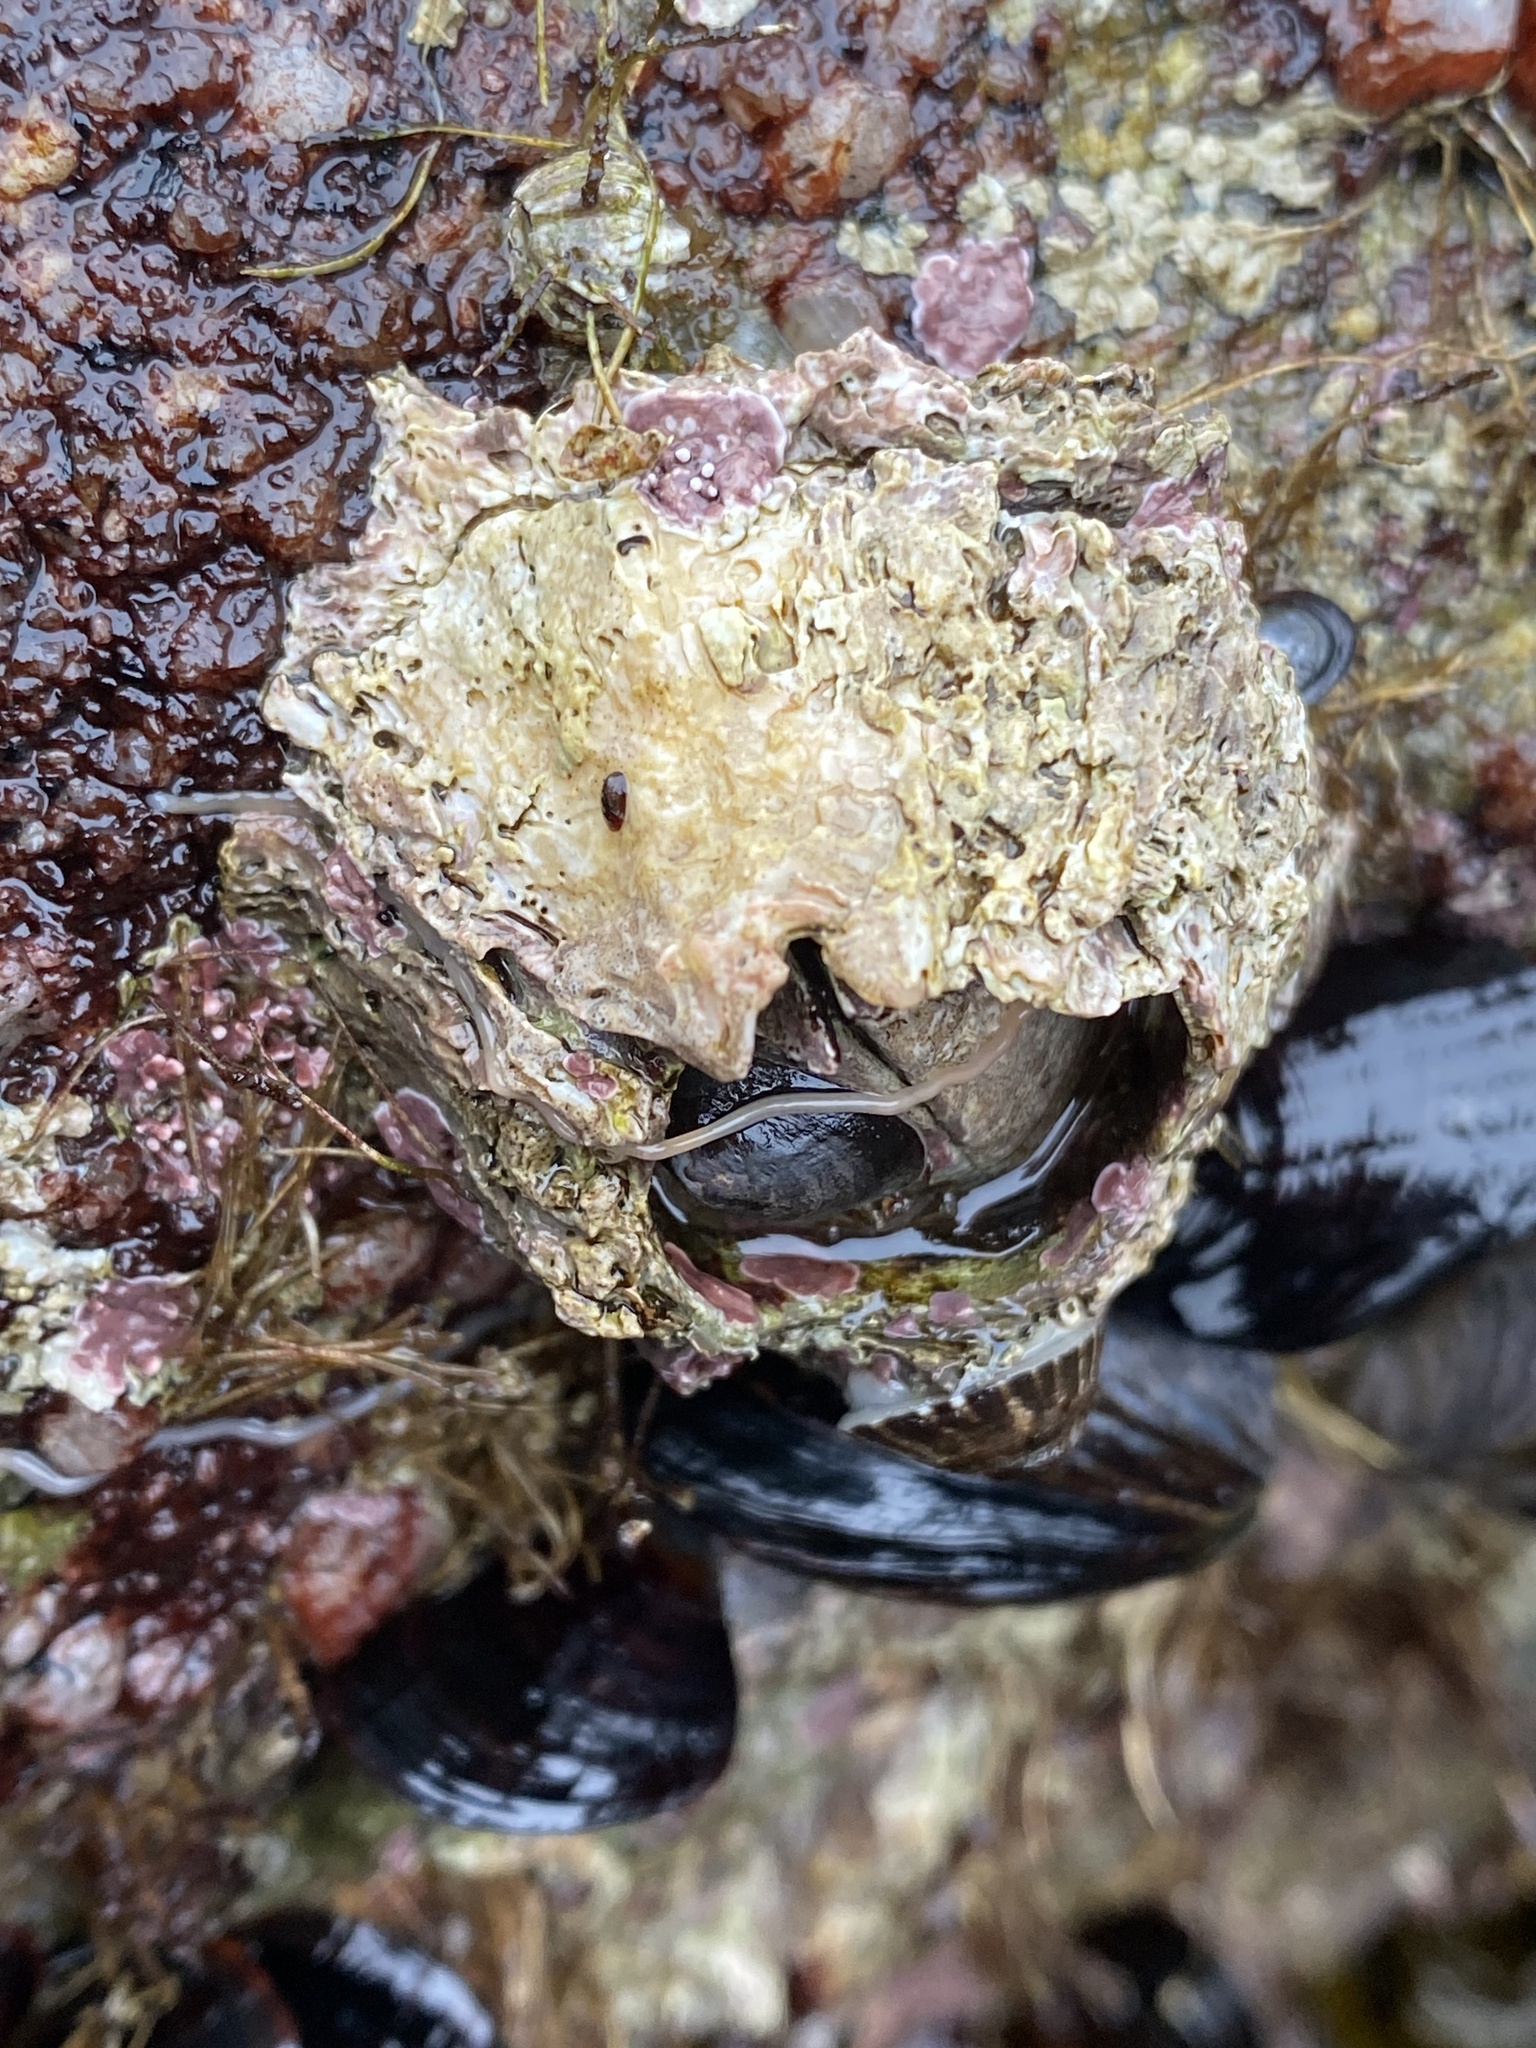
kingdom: Animalia
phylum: Arthropoda
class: Maxillopoda
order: Sessilia
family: Balanidae
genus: Balanus
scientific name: Balanus nubilus
